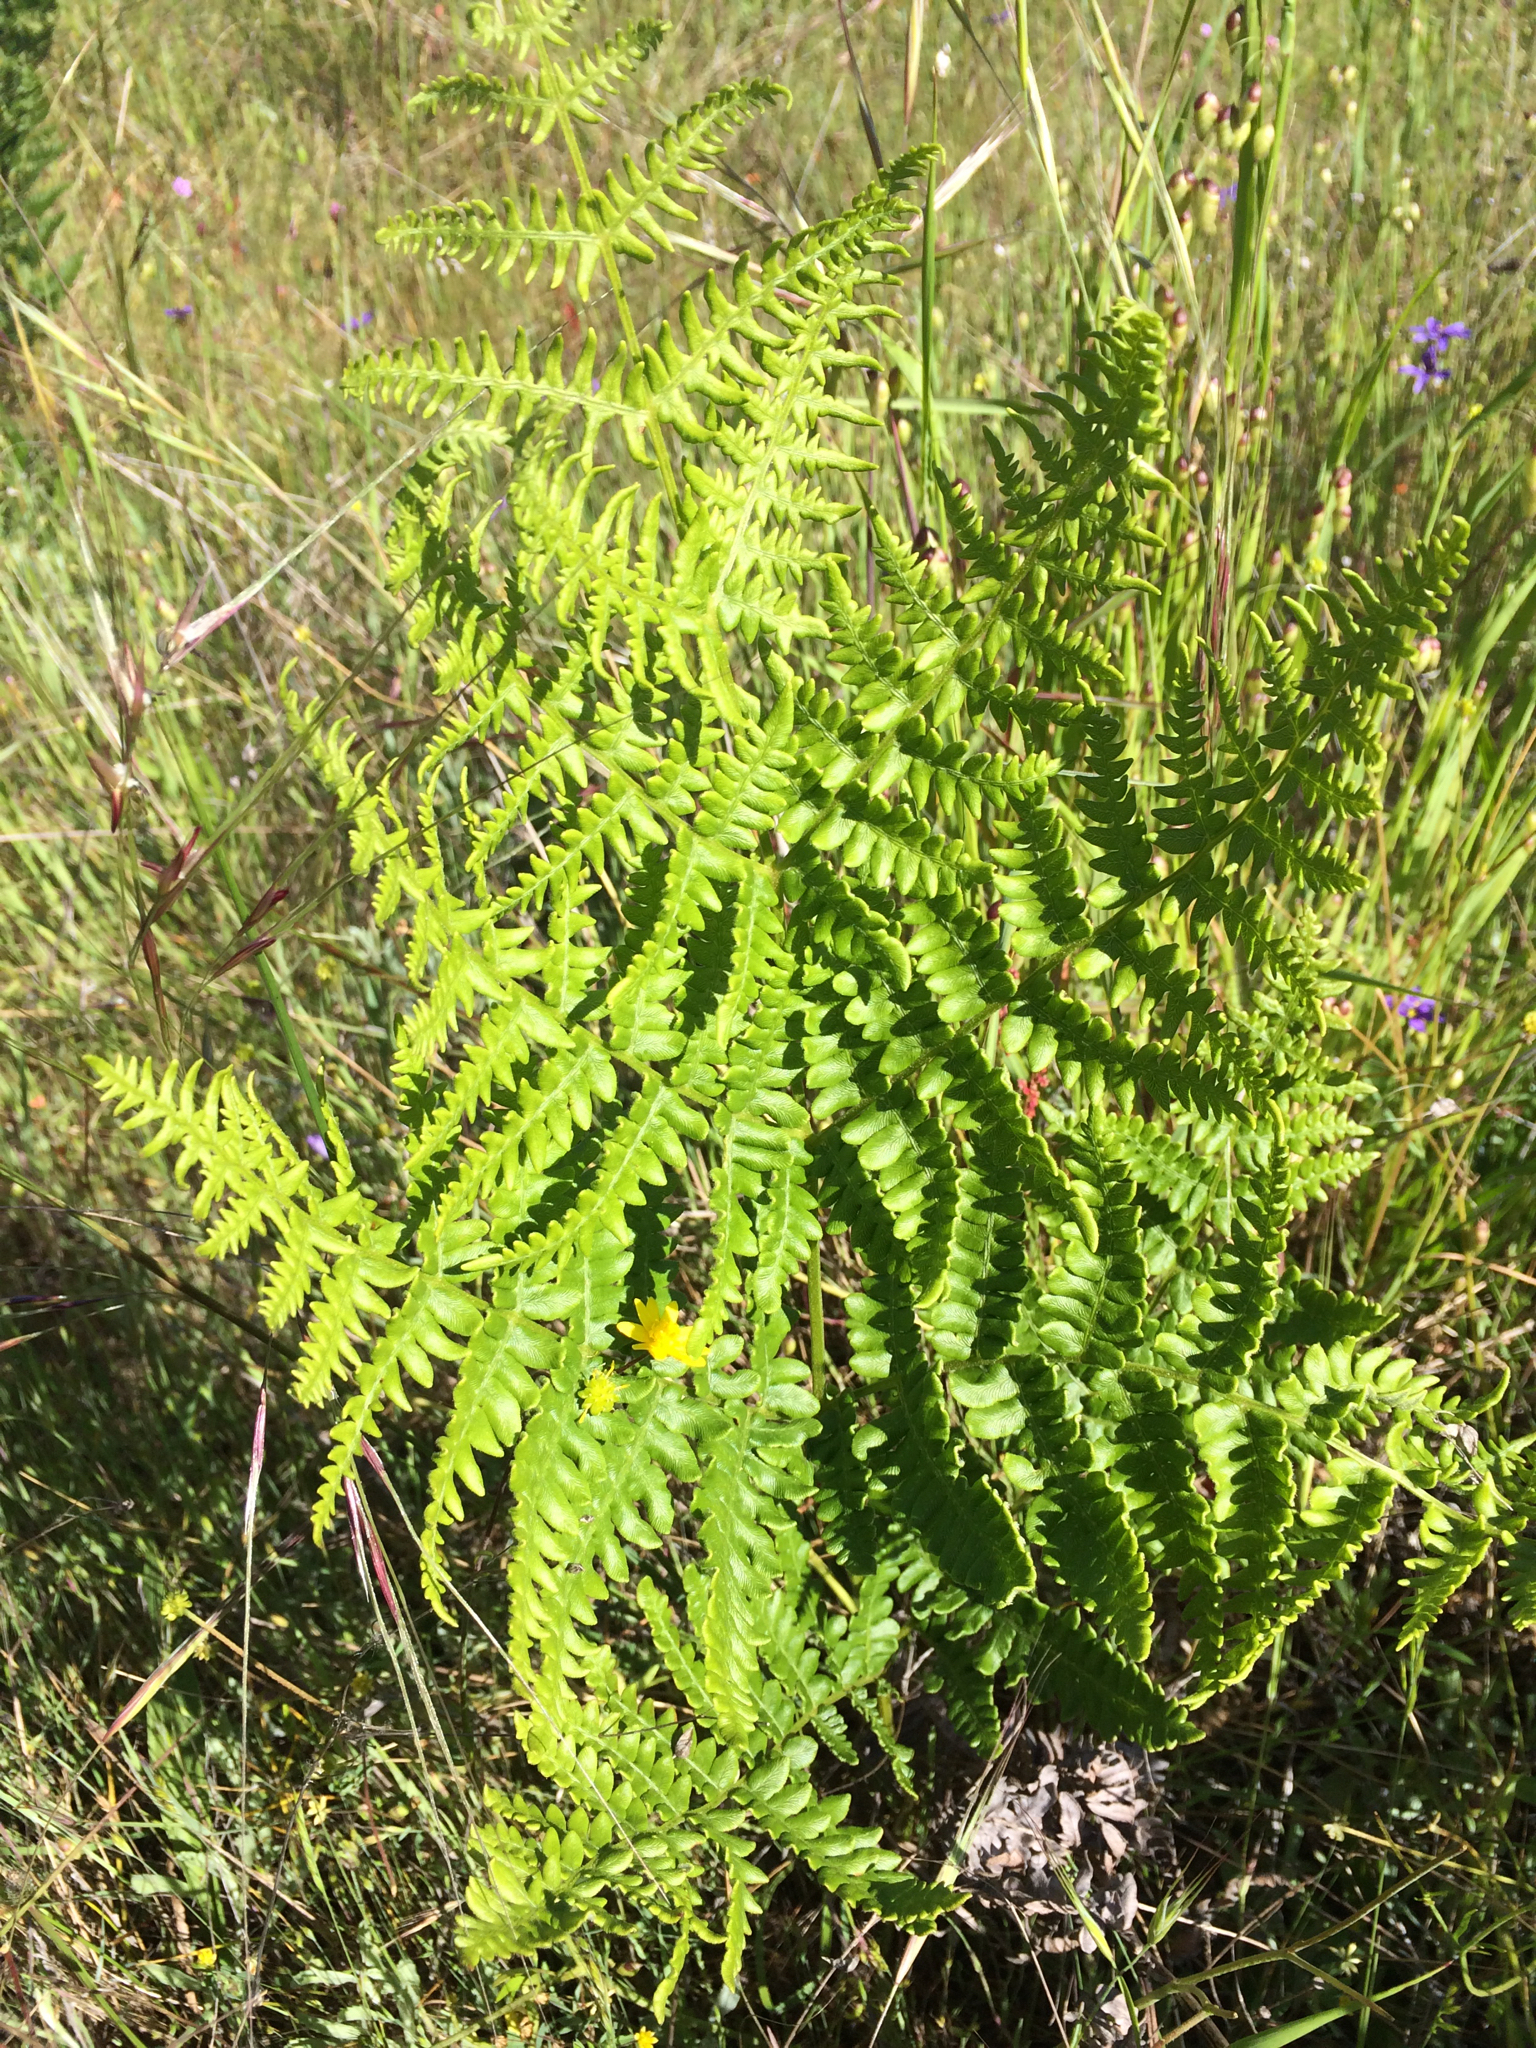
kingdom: Plantae
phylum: Tracheophyta
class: Polypodiopsida
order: Polypodiales
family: Dennstaedtiaceae
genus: Pteridium
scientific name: Pteridium aquilinum
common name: Bracken
